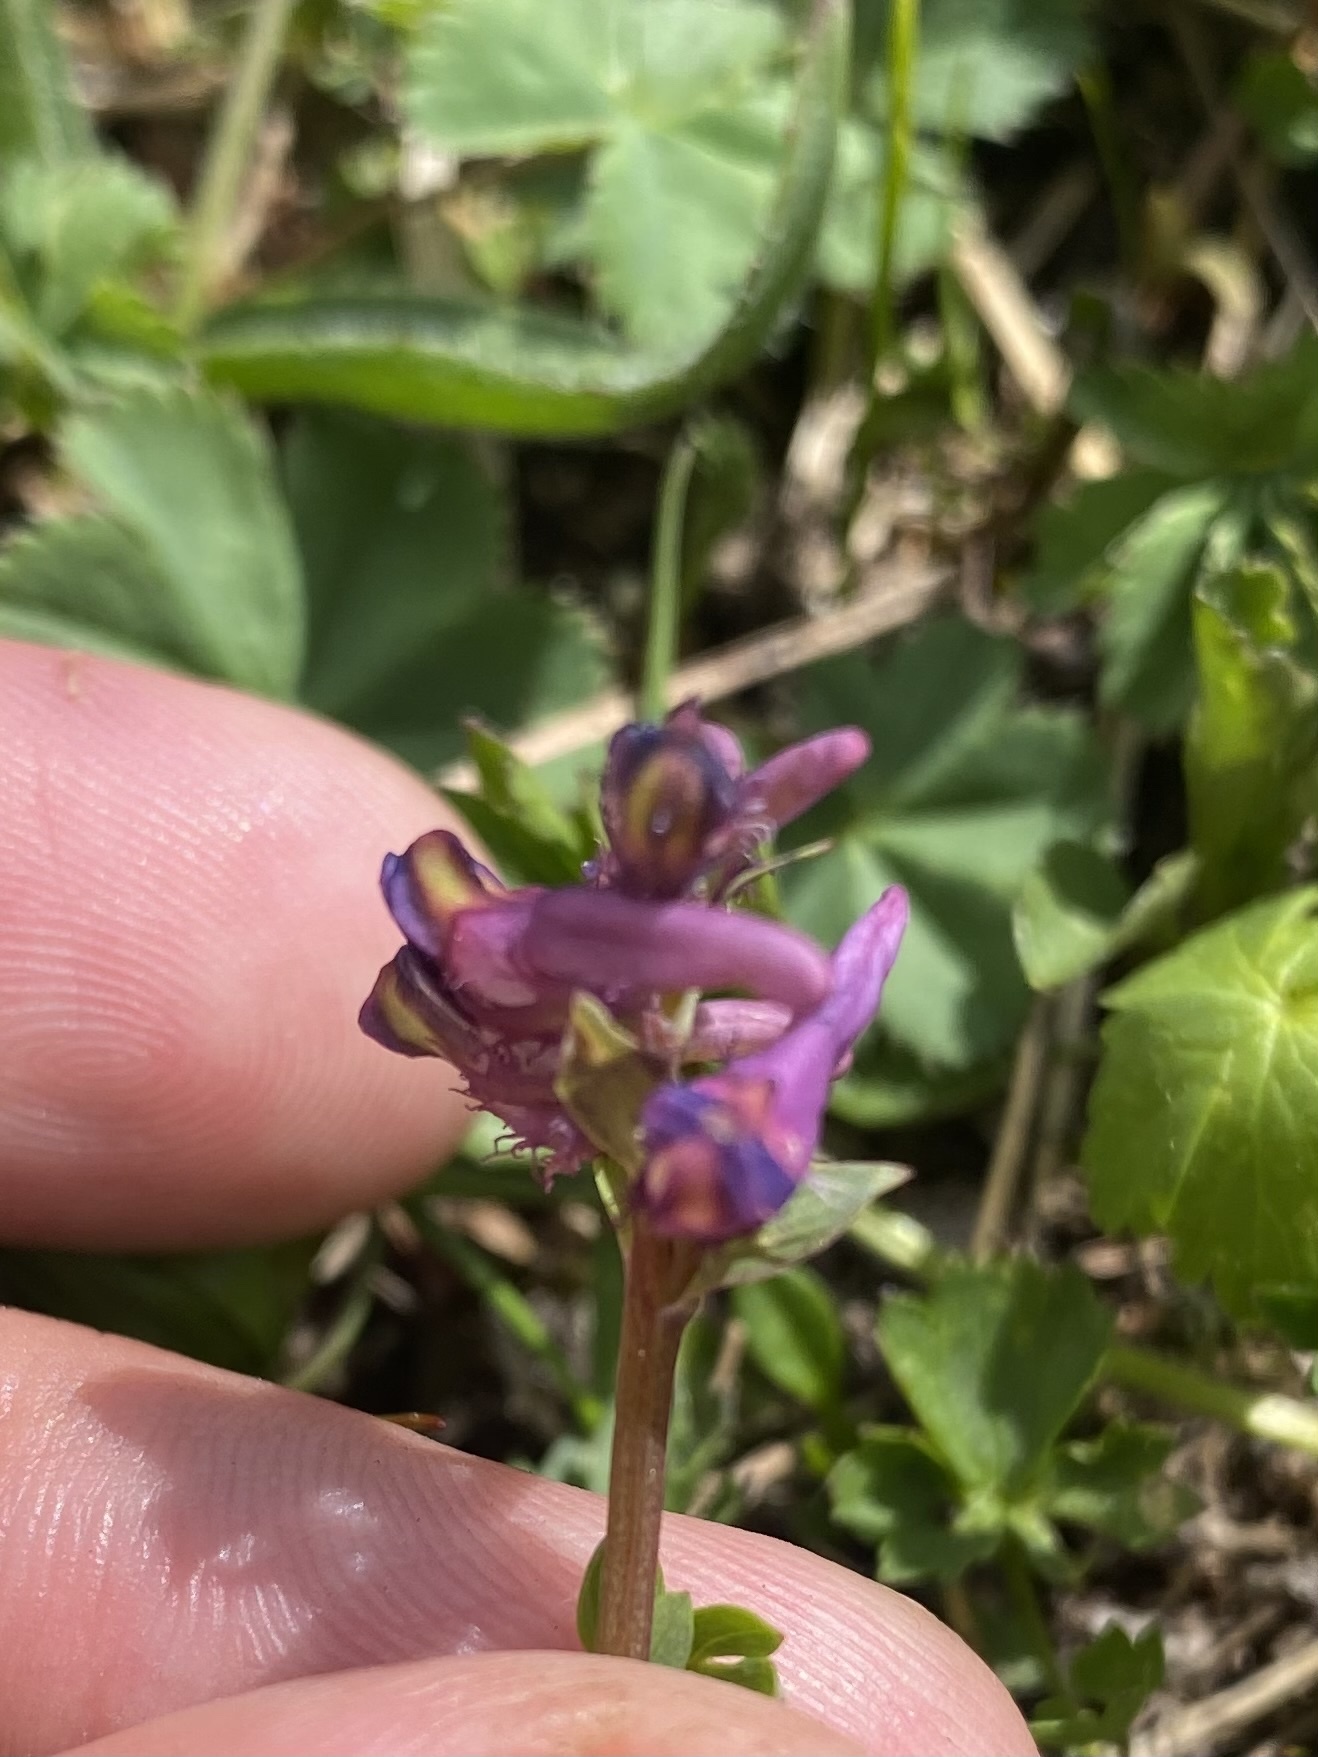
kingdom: Plantae
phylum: Tracheophyta
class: Magnoliopsida
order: Ranunculales
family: Papaveraceae
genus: Corydalis
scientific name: Corydalis conorhiza
